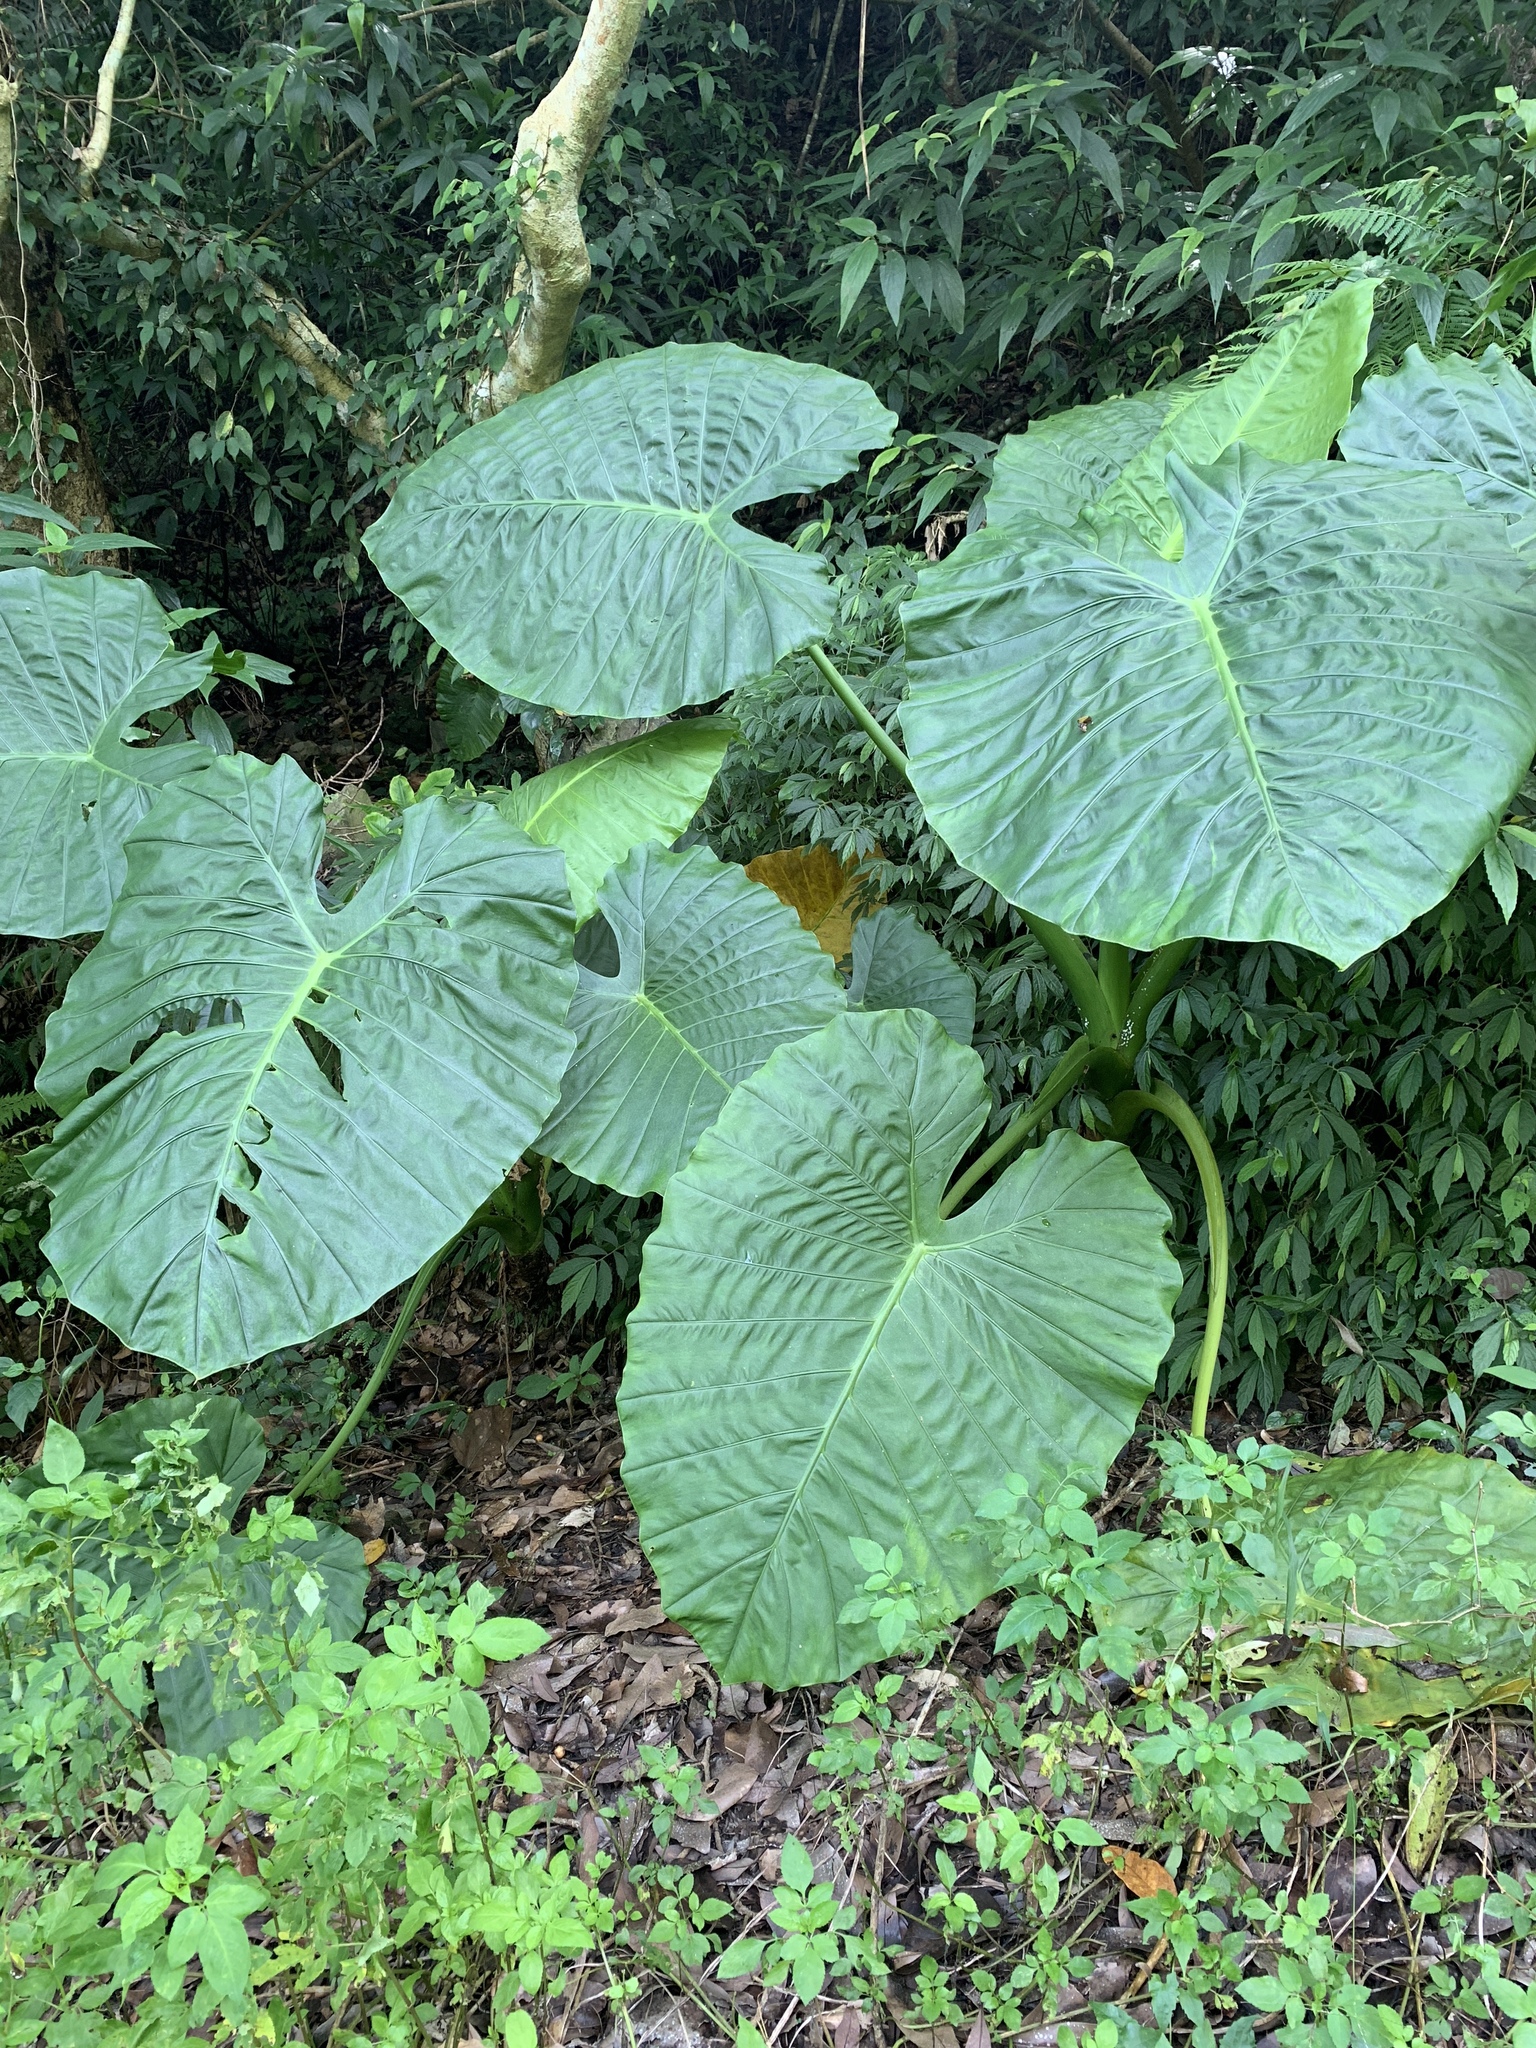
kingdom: Plantae
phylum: Tracheophyta
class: Liliopsida
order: Alismatales
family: Araceae
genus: Alocasia
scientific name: Alocasia odora
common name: Asian taro
